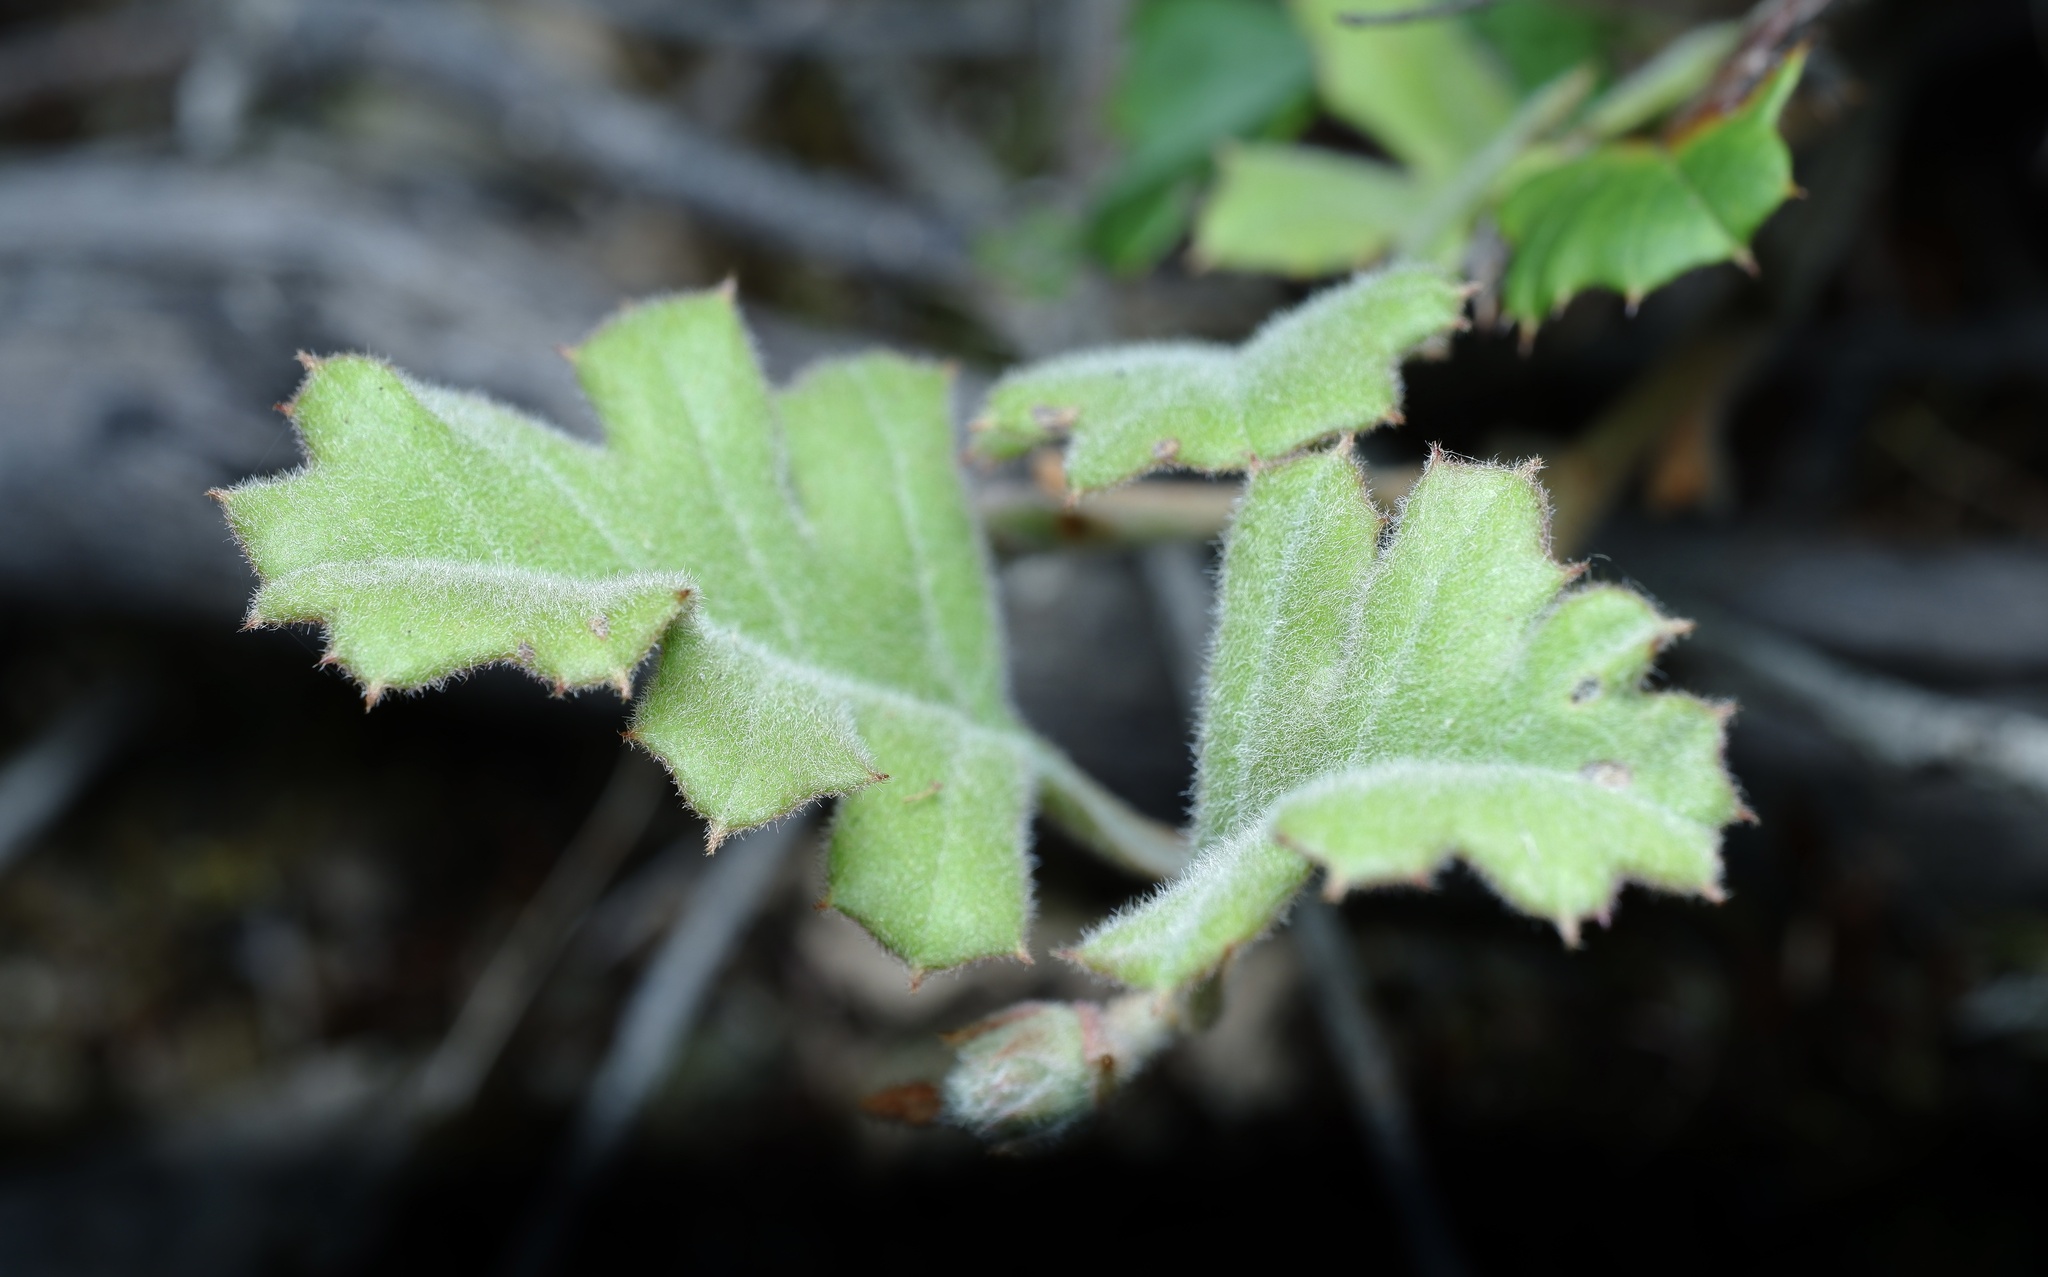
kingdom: Plantae
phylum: Tracheophyta
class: Magnoliopsida
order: Proteales
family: Proteaceae
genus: Grevillea
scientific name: Grevillea obtecta
